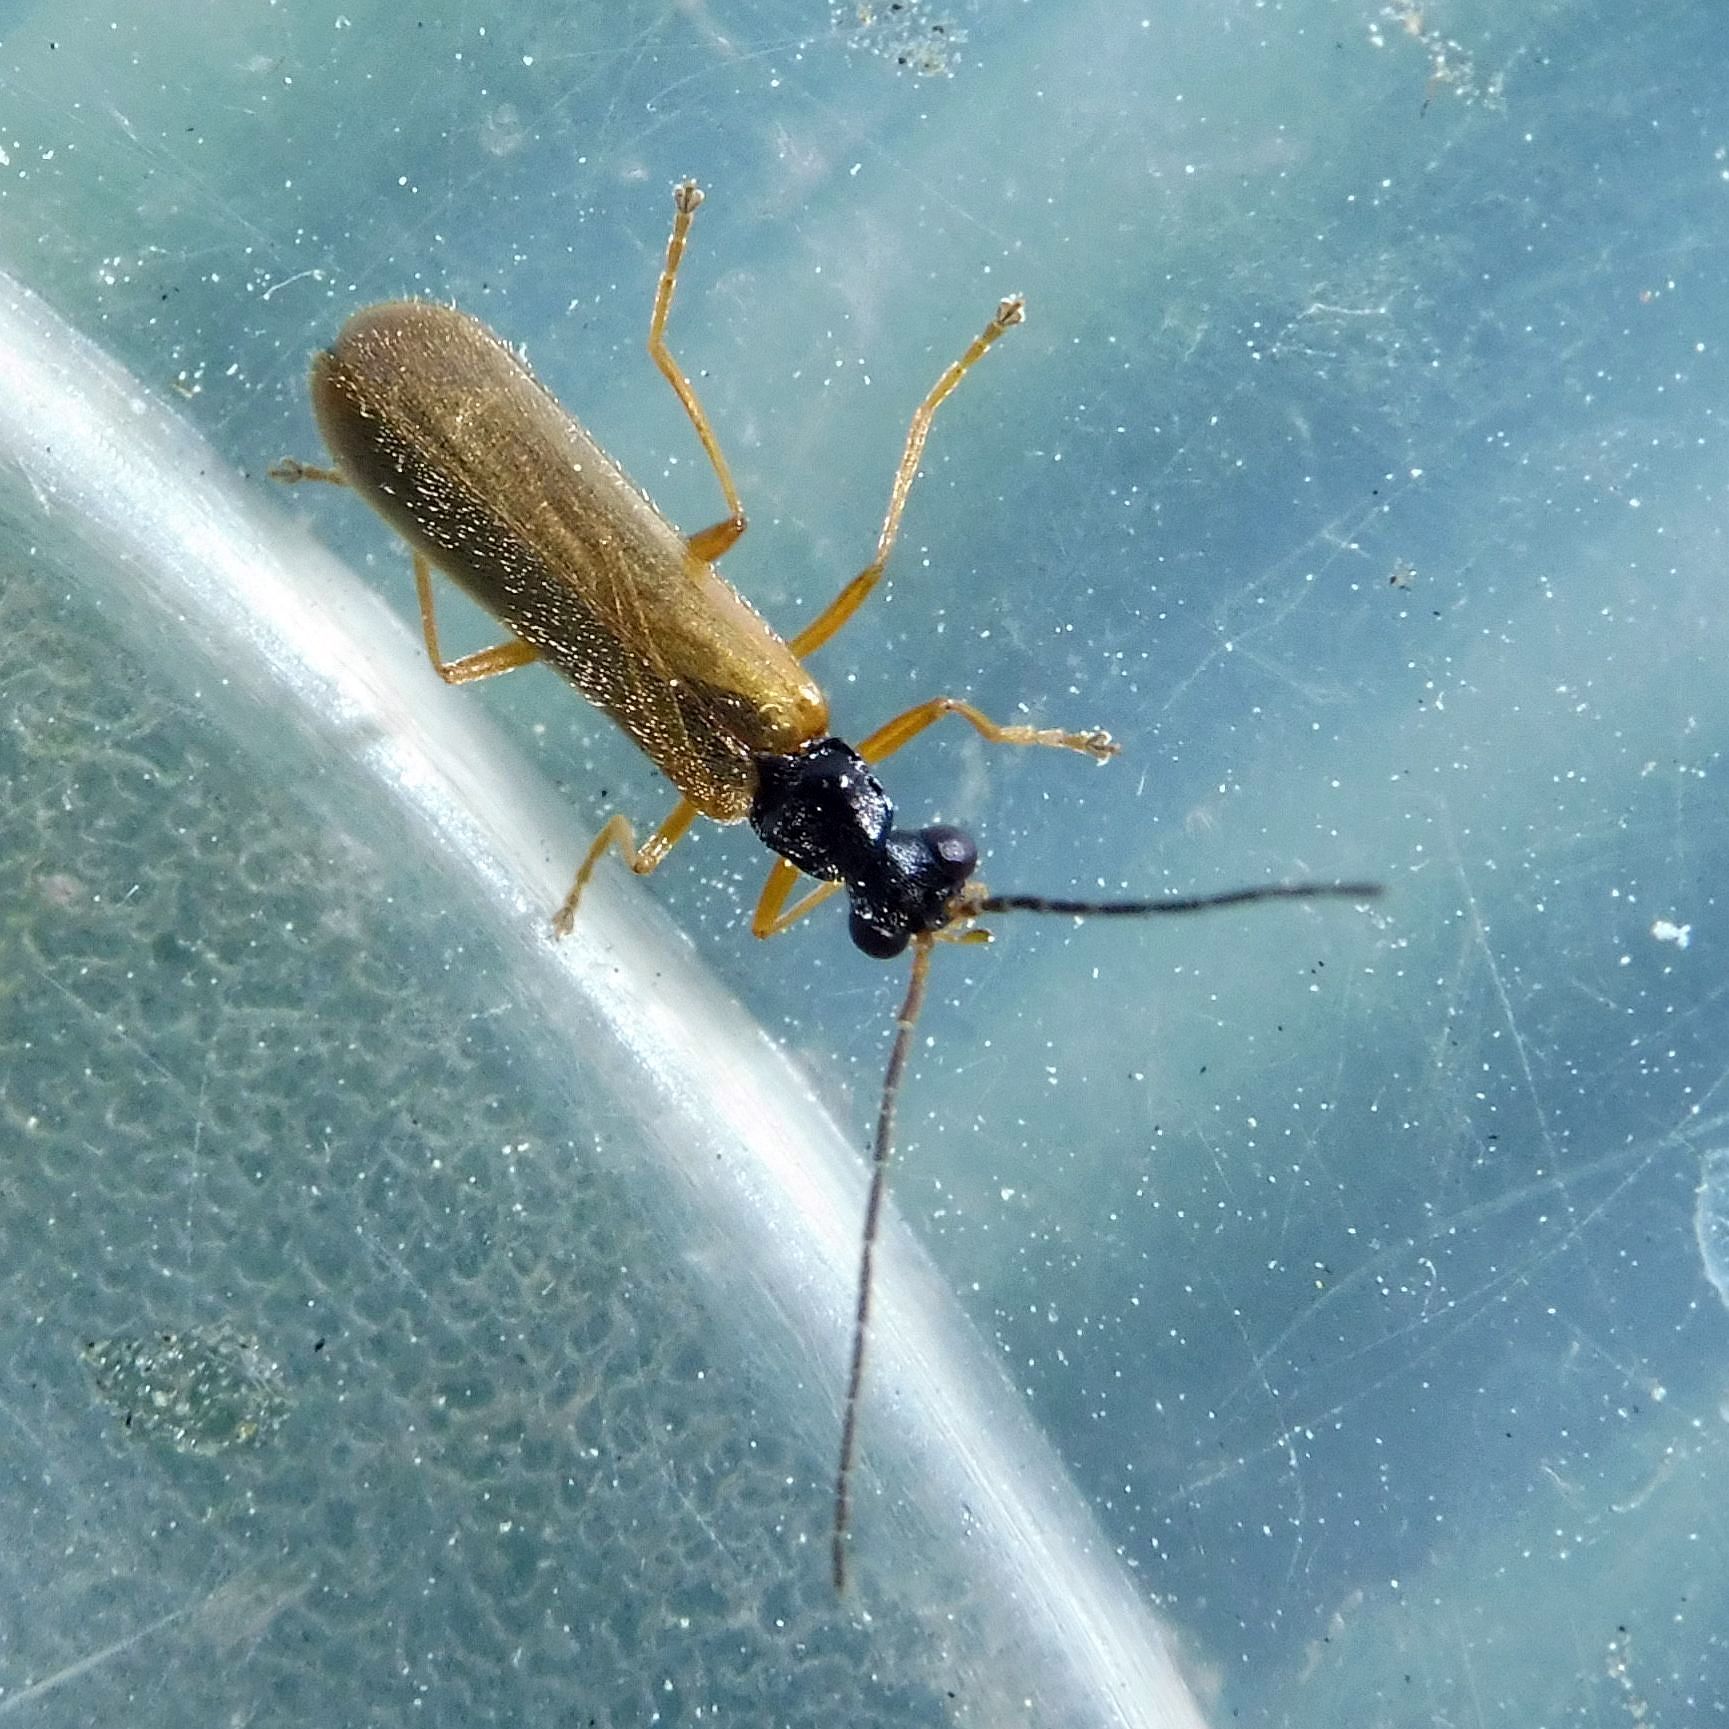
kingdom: Animalia
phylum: Arthropoda
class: Insecta
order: Coleoptera
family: Cantharidae
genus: Rhagonycha
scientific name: Rhagonycha lignosa
